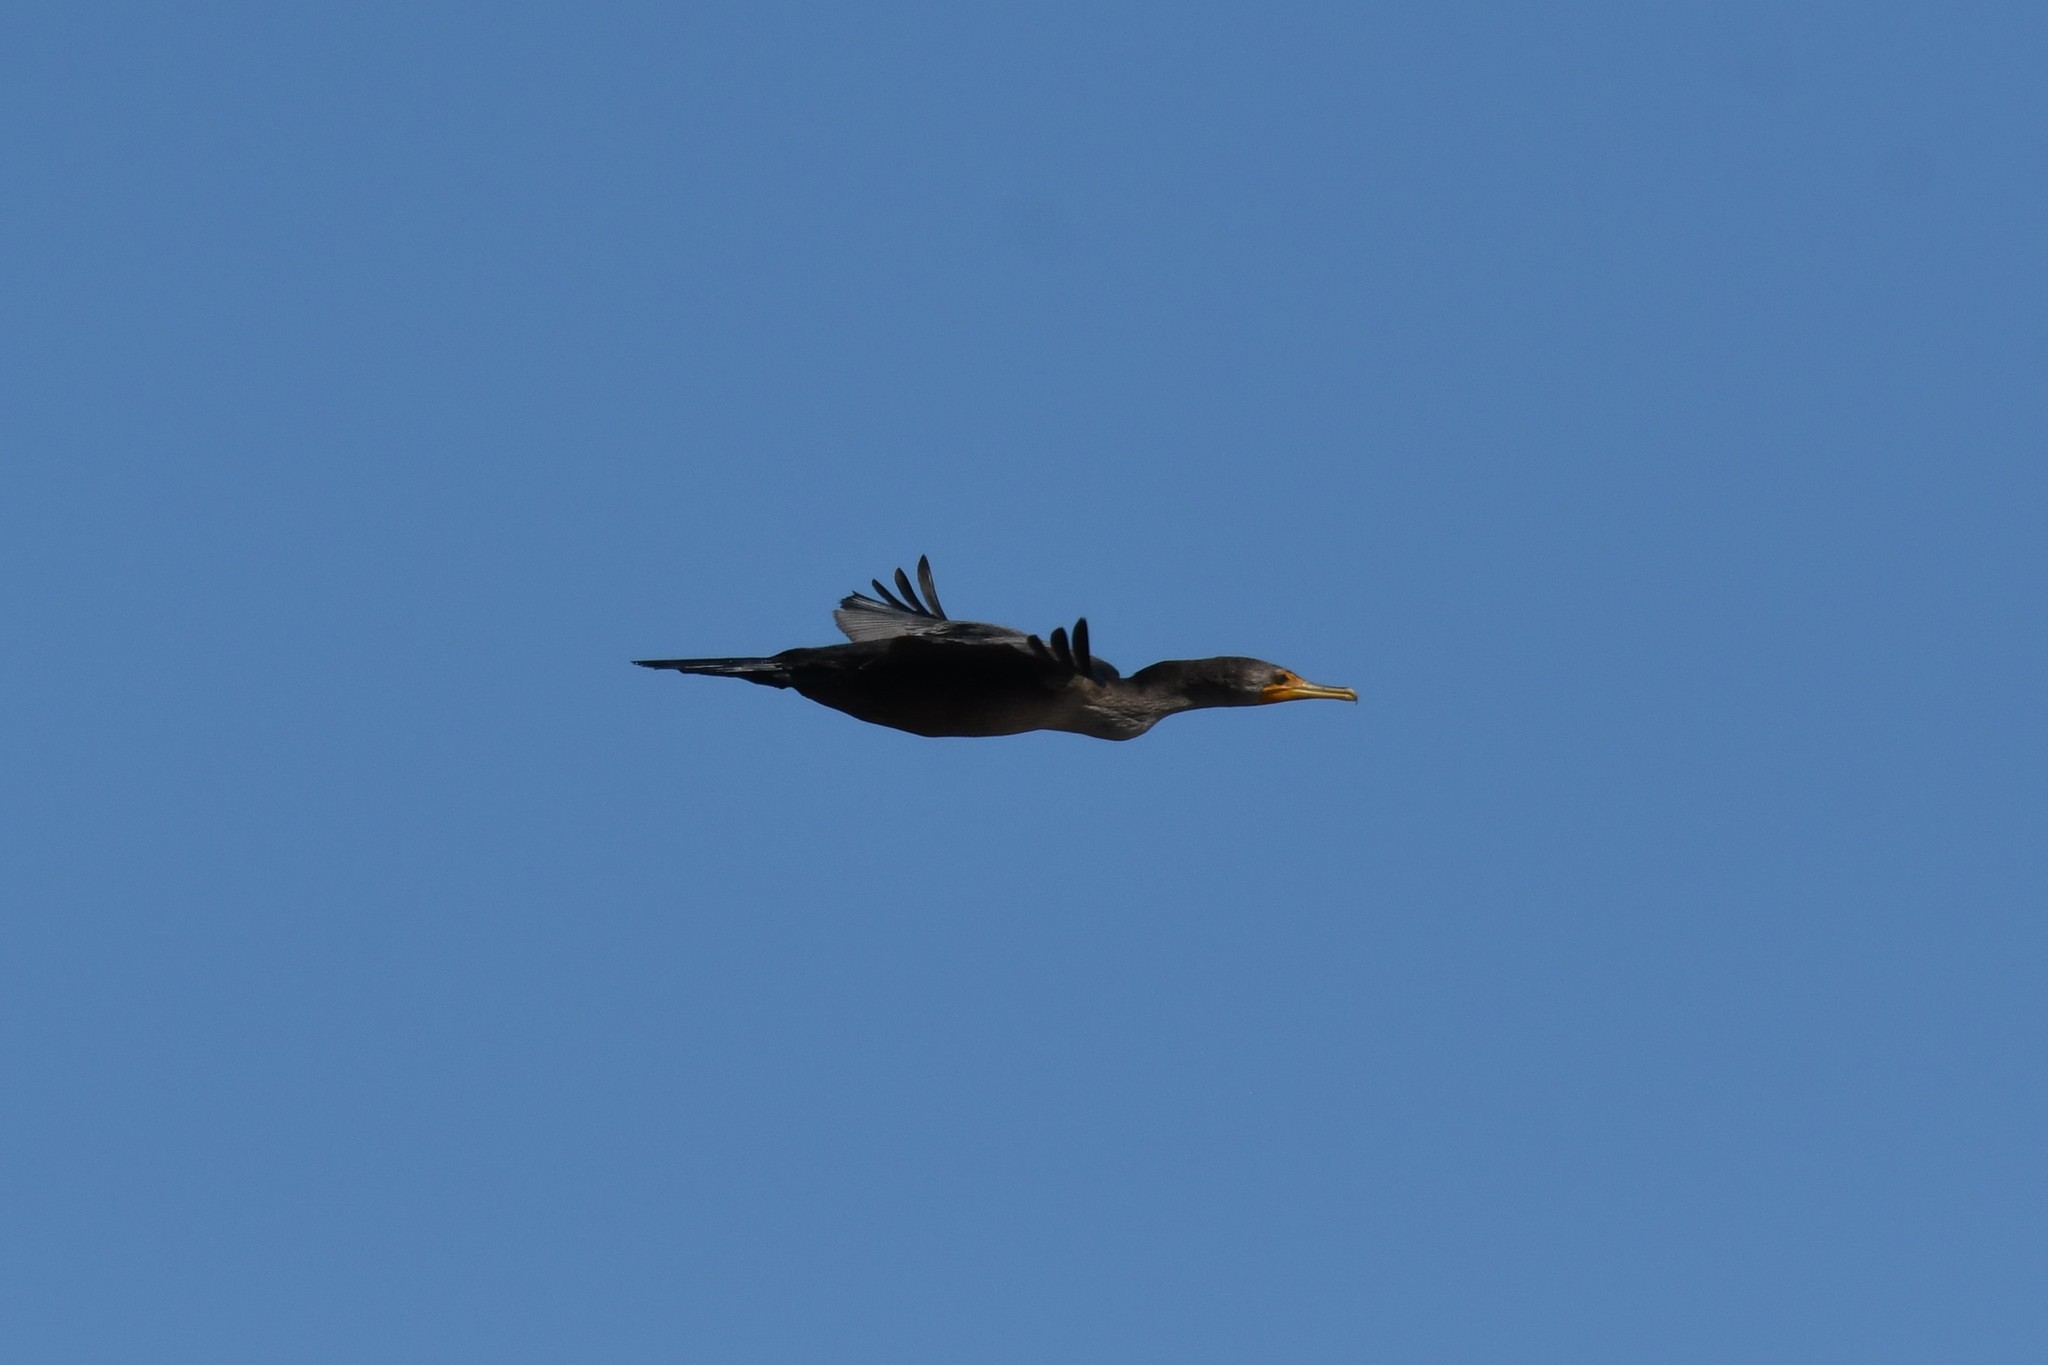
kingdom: Animalia
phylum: Chordata
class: Aves
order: Suliformes
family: Phalacrocoracidae
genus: Phalacrocorax
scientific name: Phalacrocorax auritus
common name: Double-crested cormorant
